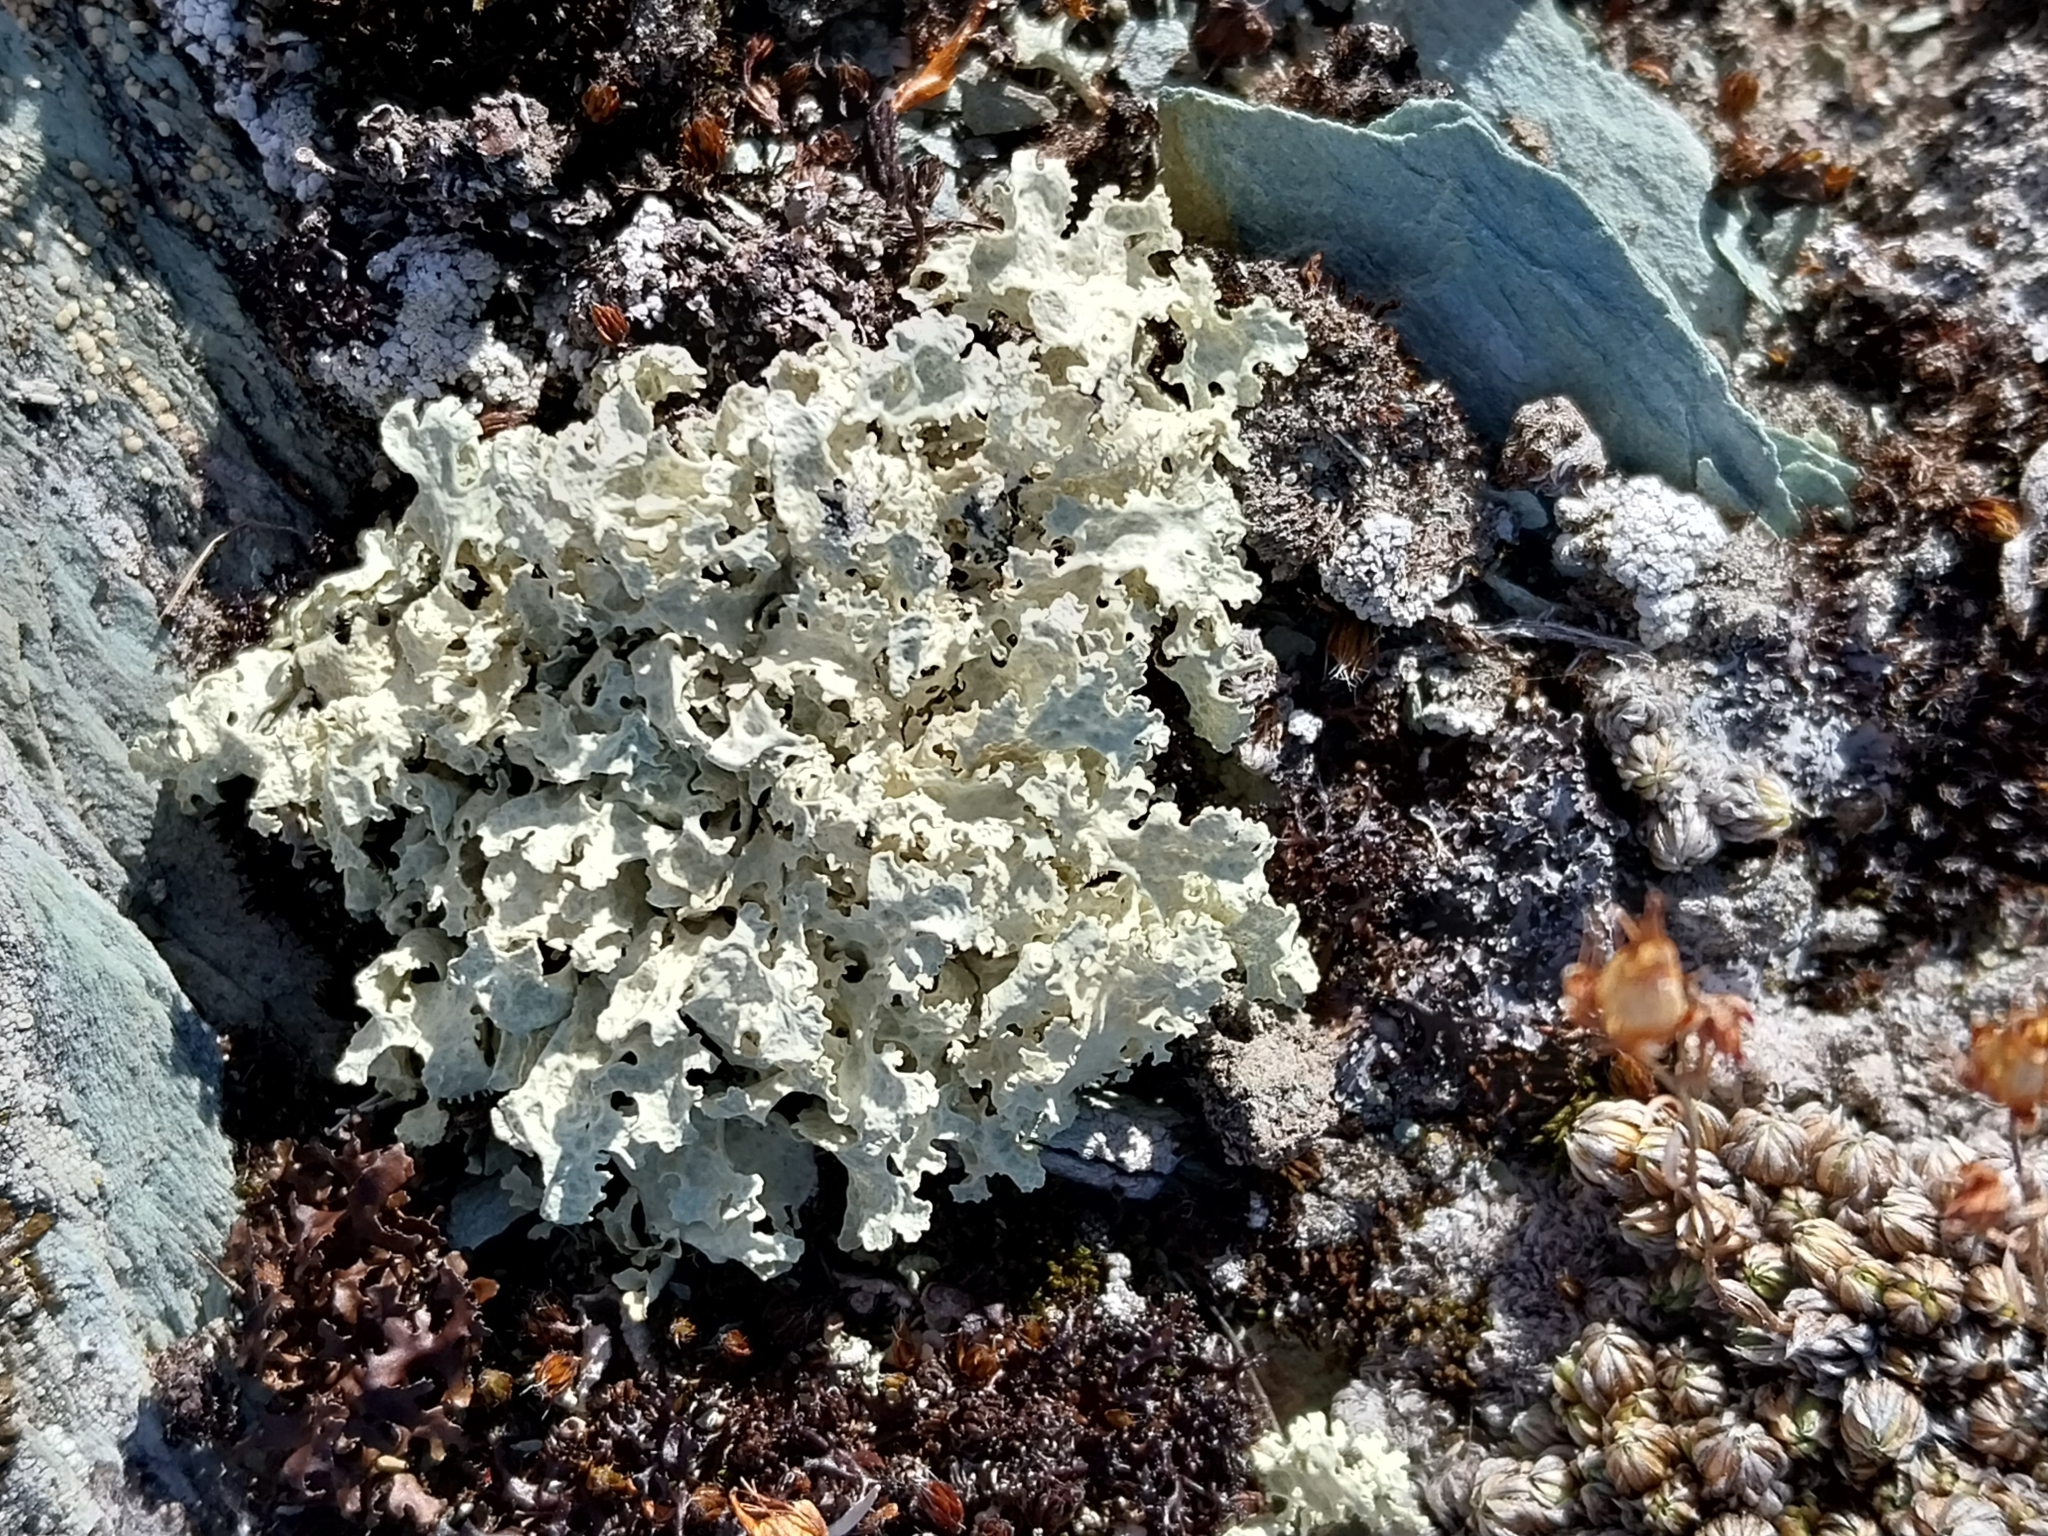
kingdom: Fungi
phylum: Ascomycota
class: Lecanoromycetes
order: Lecanorales
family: Parmeliaceae
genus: Nephromopsis
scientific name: Nephromopsis nivalis
